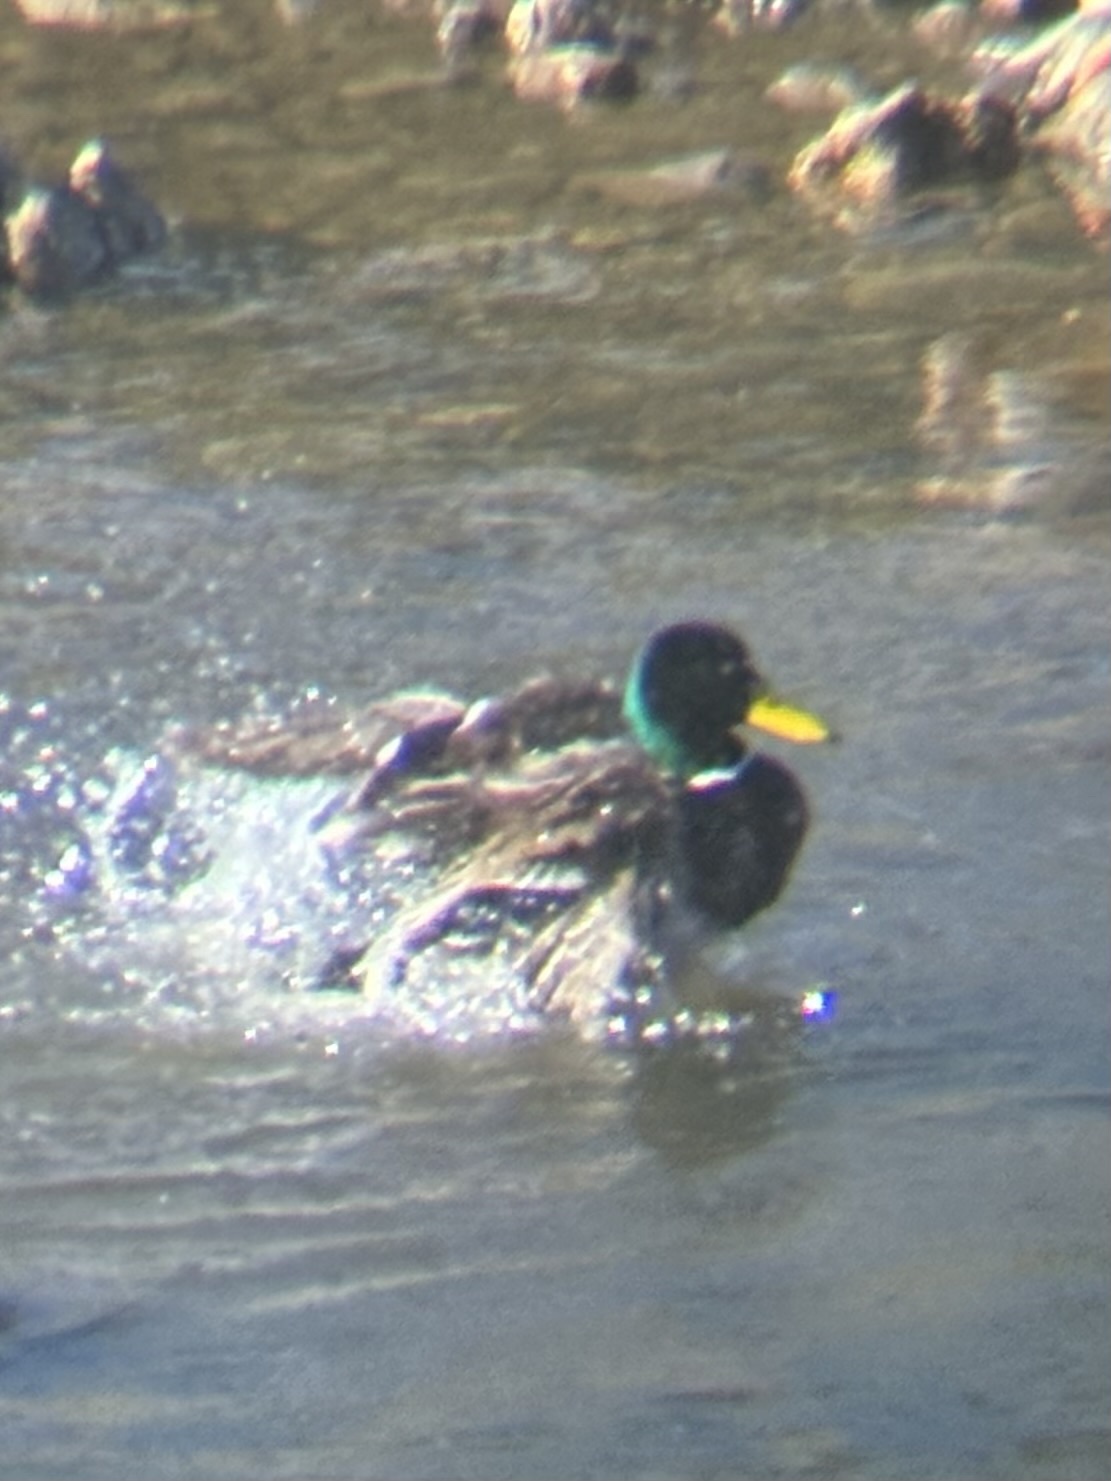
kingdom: Animalia
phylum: Chordata
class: Aves
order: Anseriformes
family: Anatidae
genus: Anas
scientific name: Anas platyrhynchos
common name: Mallard
